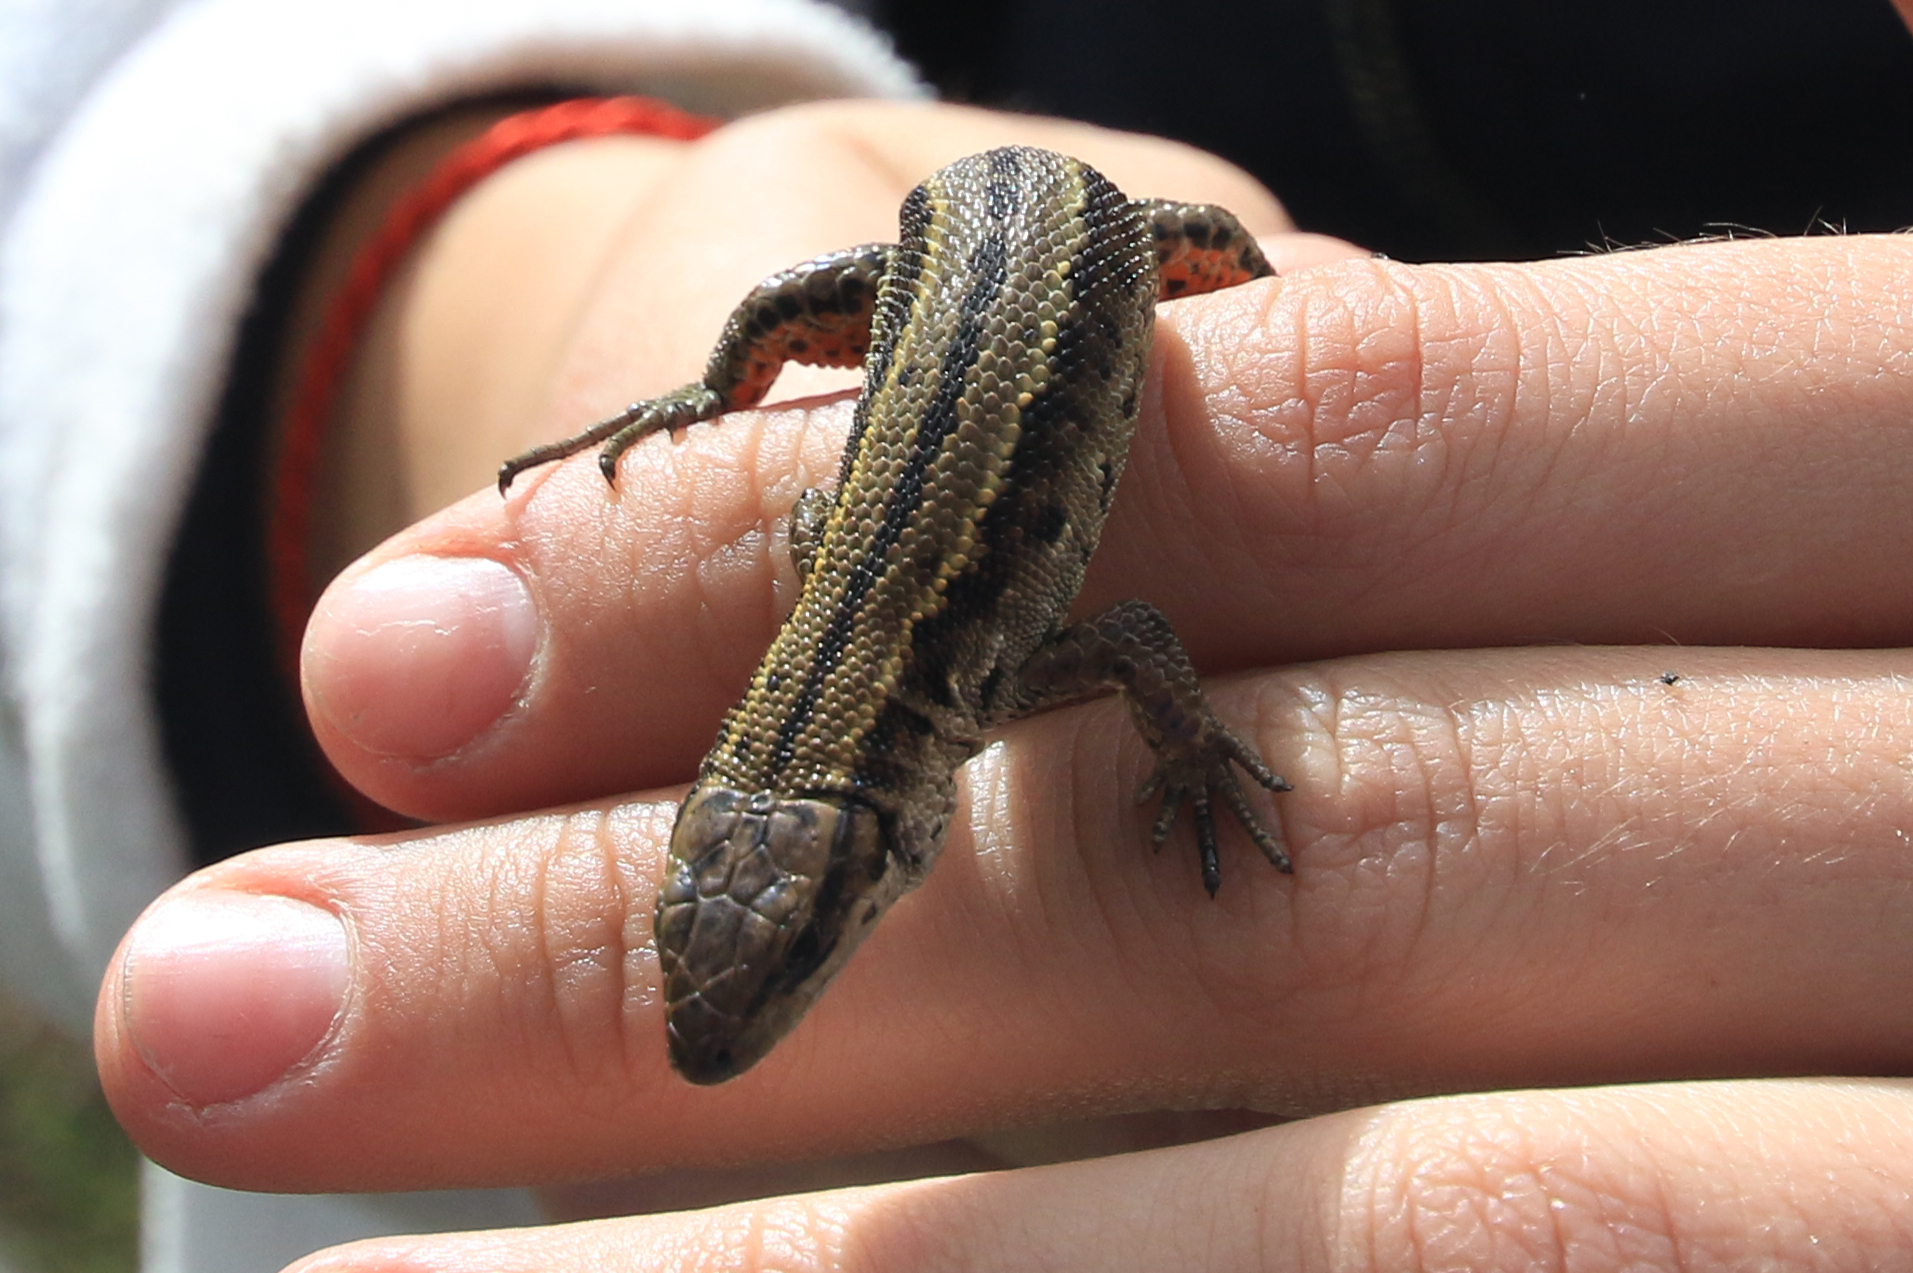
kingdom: Animalia
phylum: Chordata
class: Squamata
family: Lacertidae
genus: Zootoca
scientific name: Zootoca vivipara
